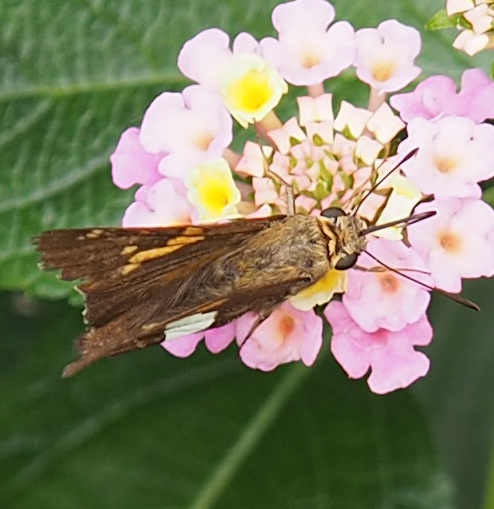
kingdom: Animalia
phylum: Arthropoda
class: Insecta
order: Lepidoptera
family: Hesperiidae
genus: Epargyreus
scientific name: Epargyreus clarus
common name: Silver-spotted skipper
